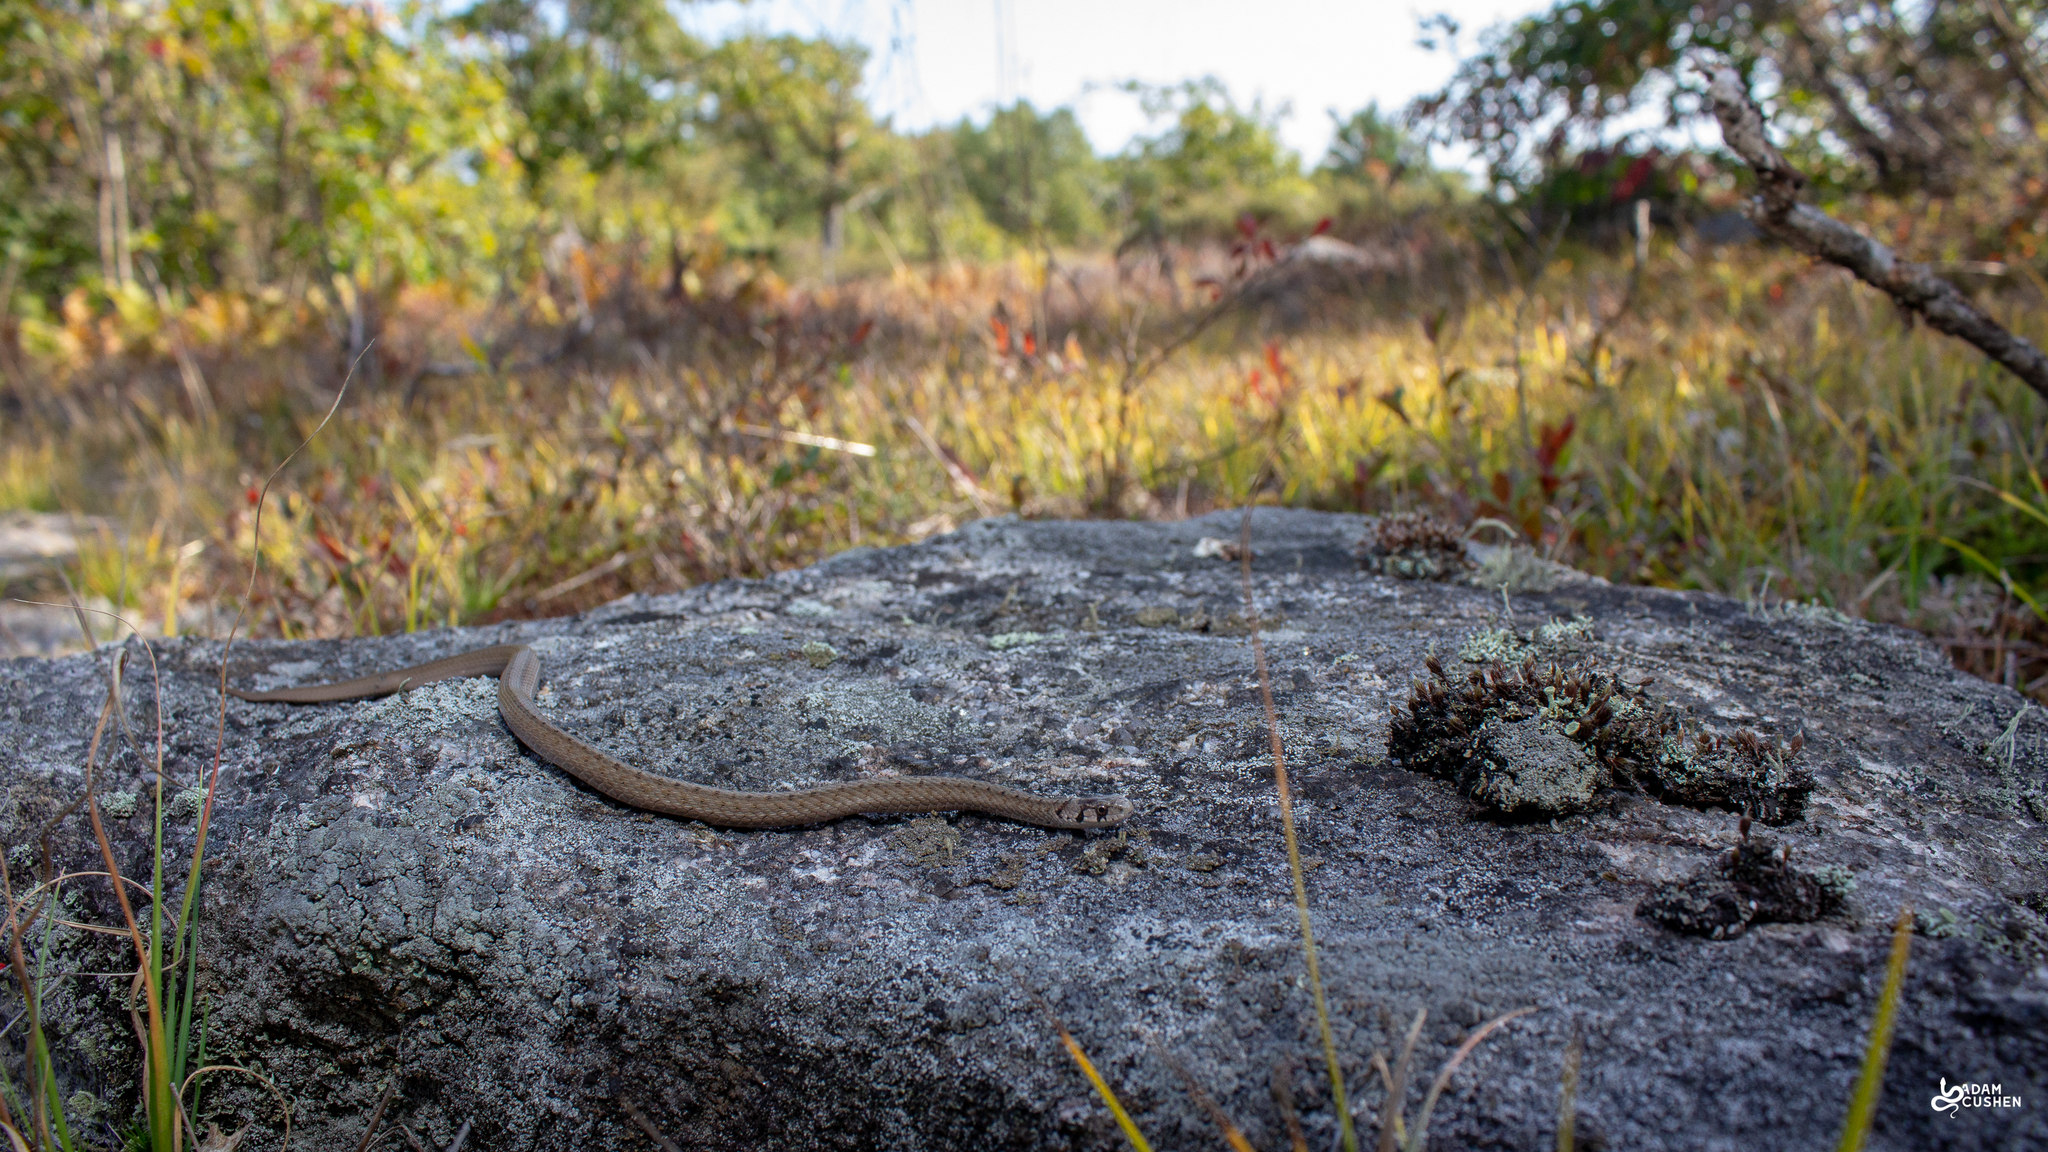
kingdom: Animalia
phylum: Chordata
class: Squamata
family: Colubridae
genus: Storeria
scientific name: Storeria dekayi
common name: (dekay’s) brown snake
